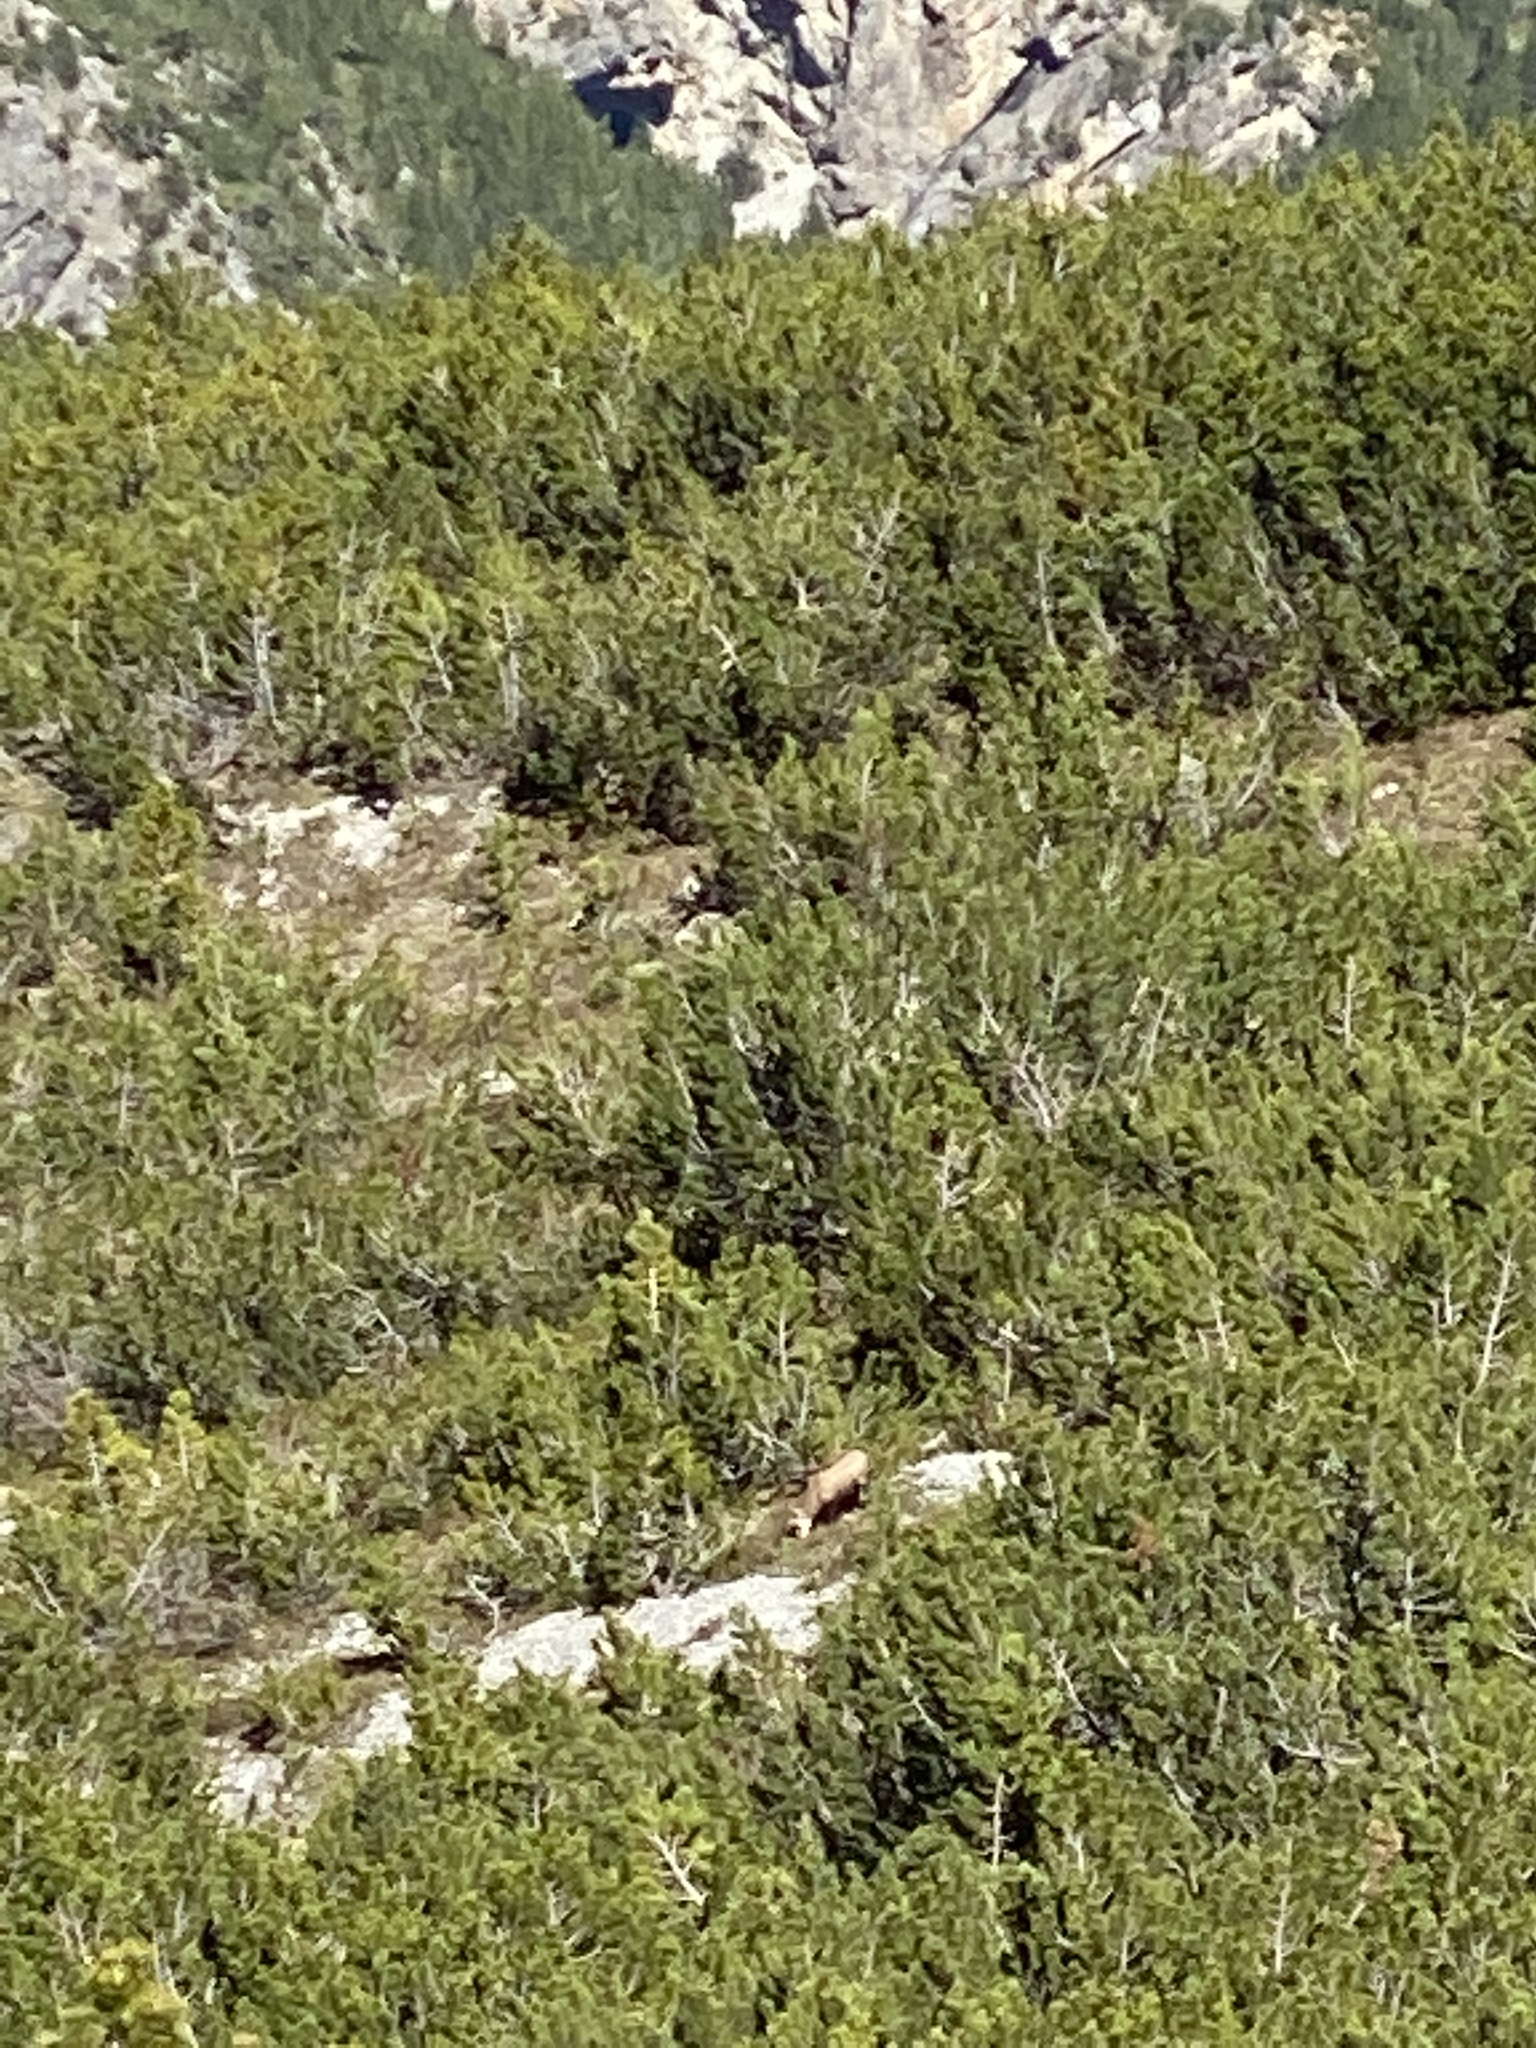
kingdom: Animalia
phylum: Chordata
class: Mammalia
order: Artiodactyla
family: Bovidae
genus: Rupicapra
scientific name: Rupicapra rupicapra
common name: Chamois
